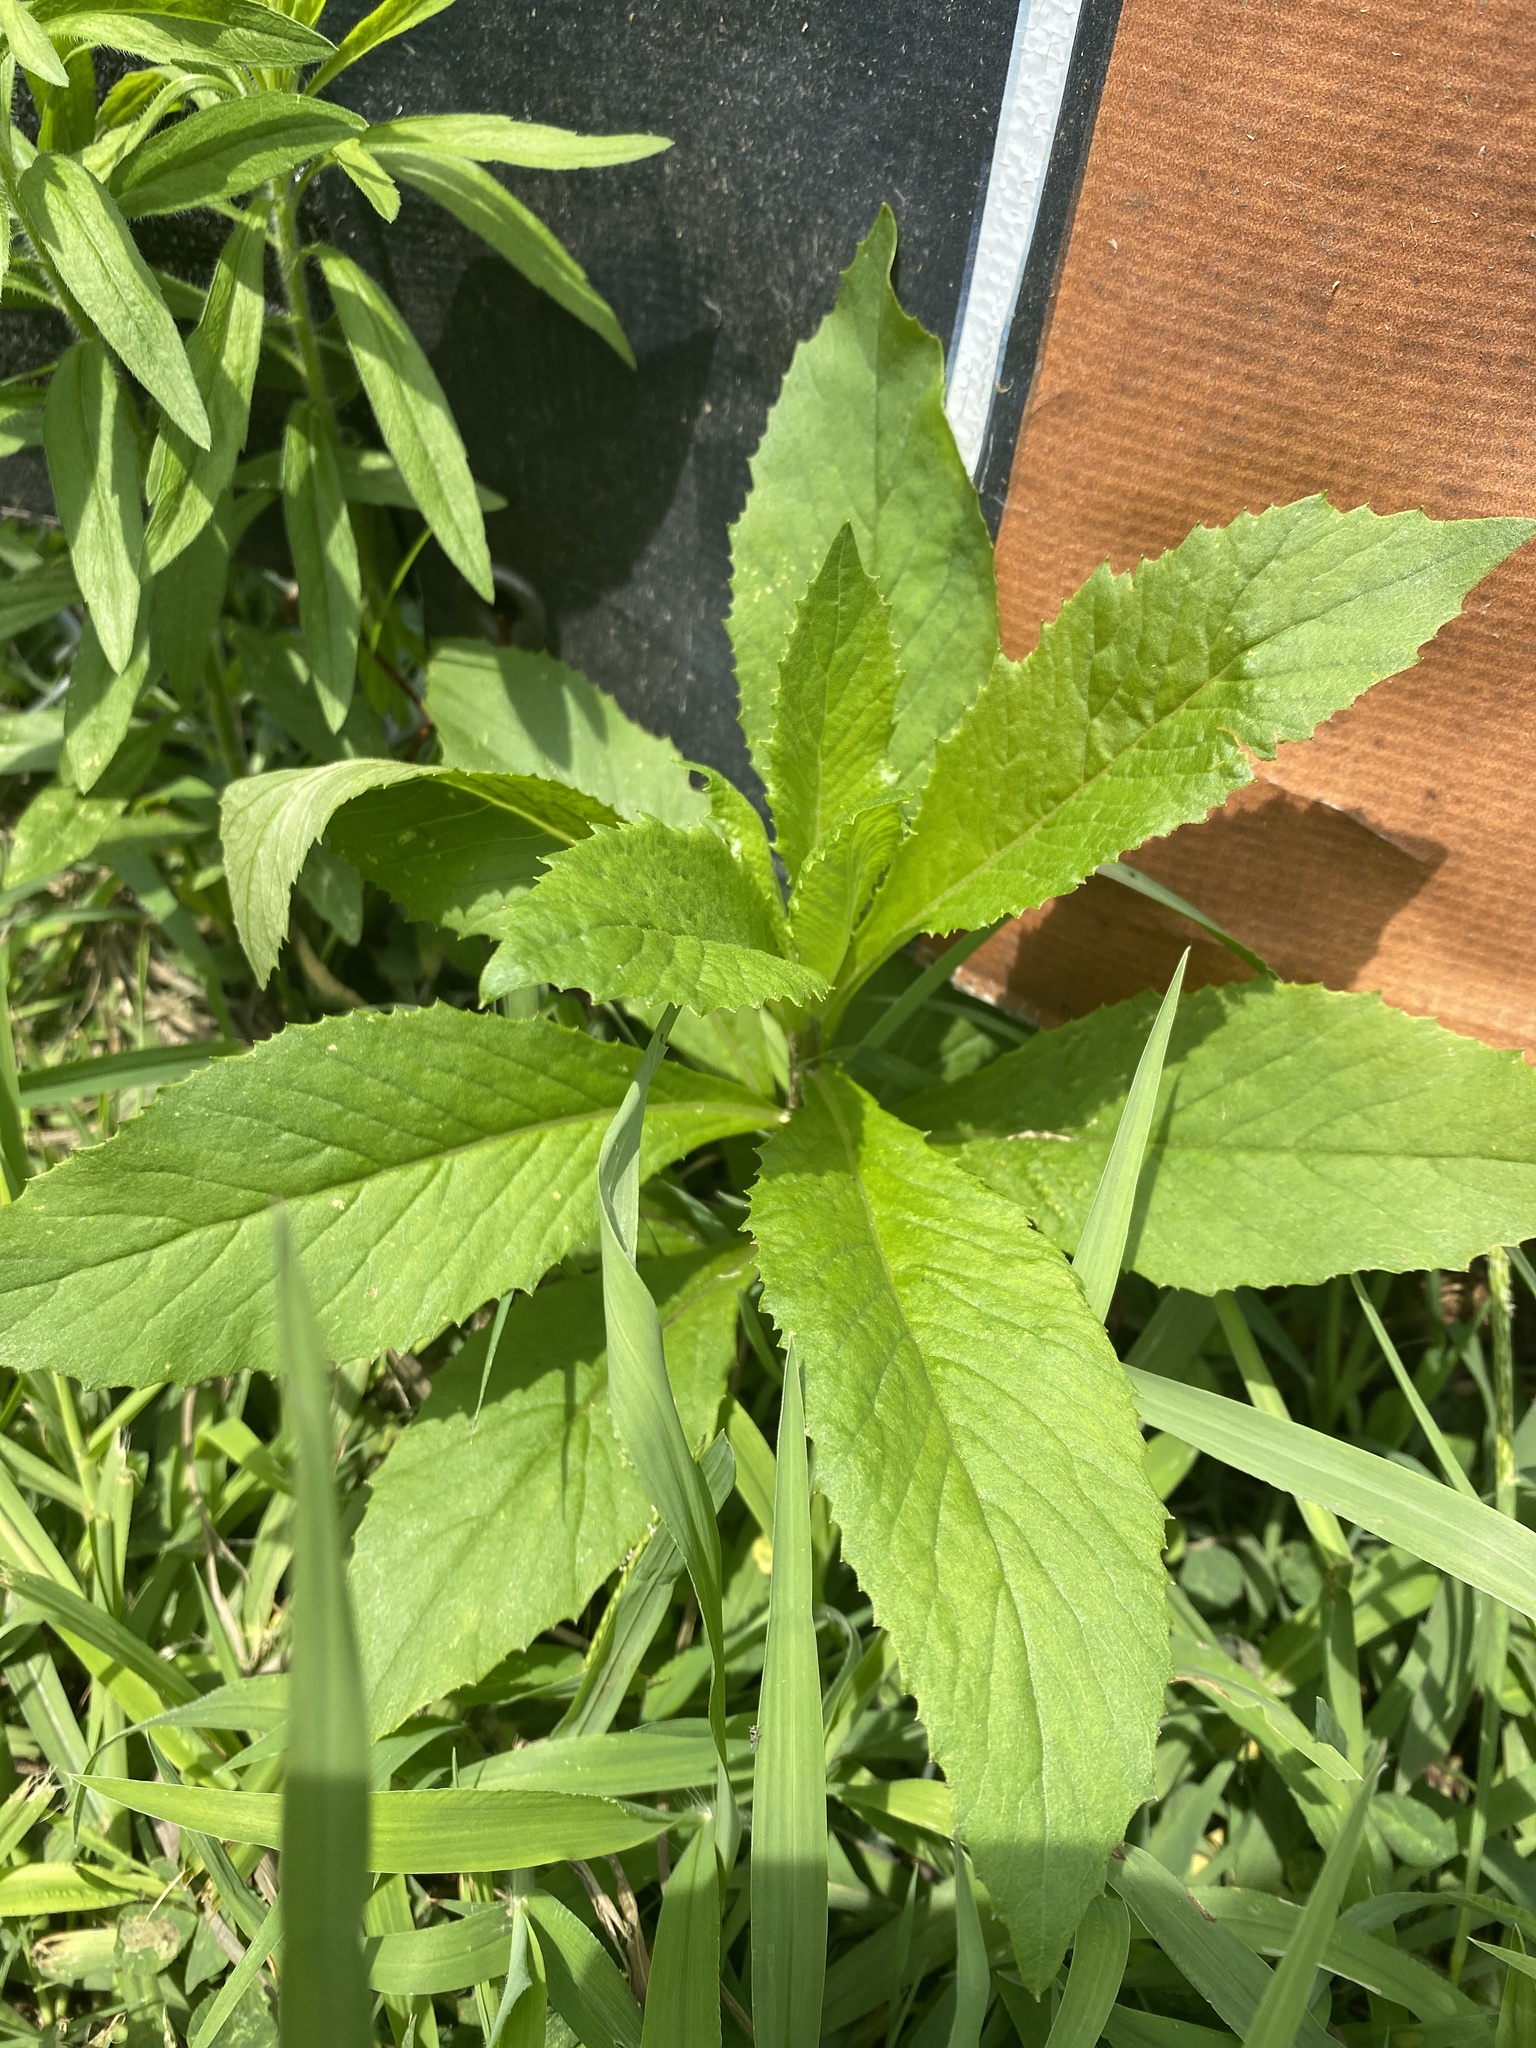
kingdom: Plantae
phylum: Tracheophyta
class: Magnoliopsida
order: Asterales
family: Asteraceae
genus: Erechtites
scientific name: Erechtites hieraciifolius
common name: American burnweed
